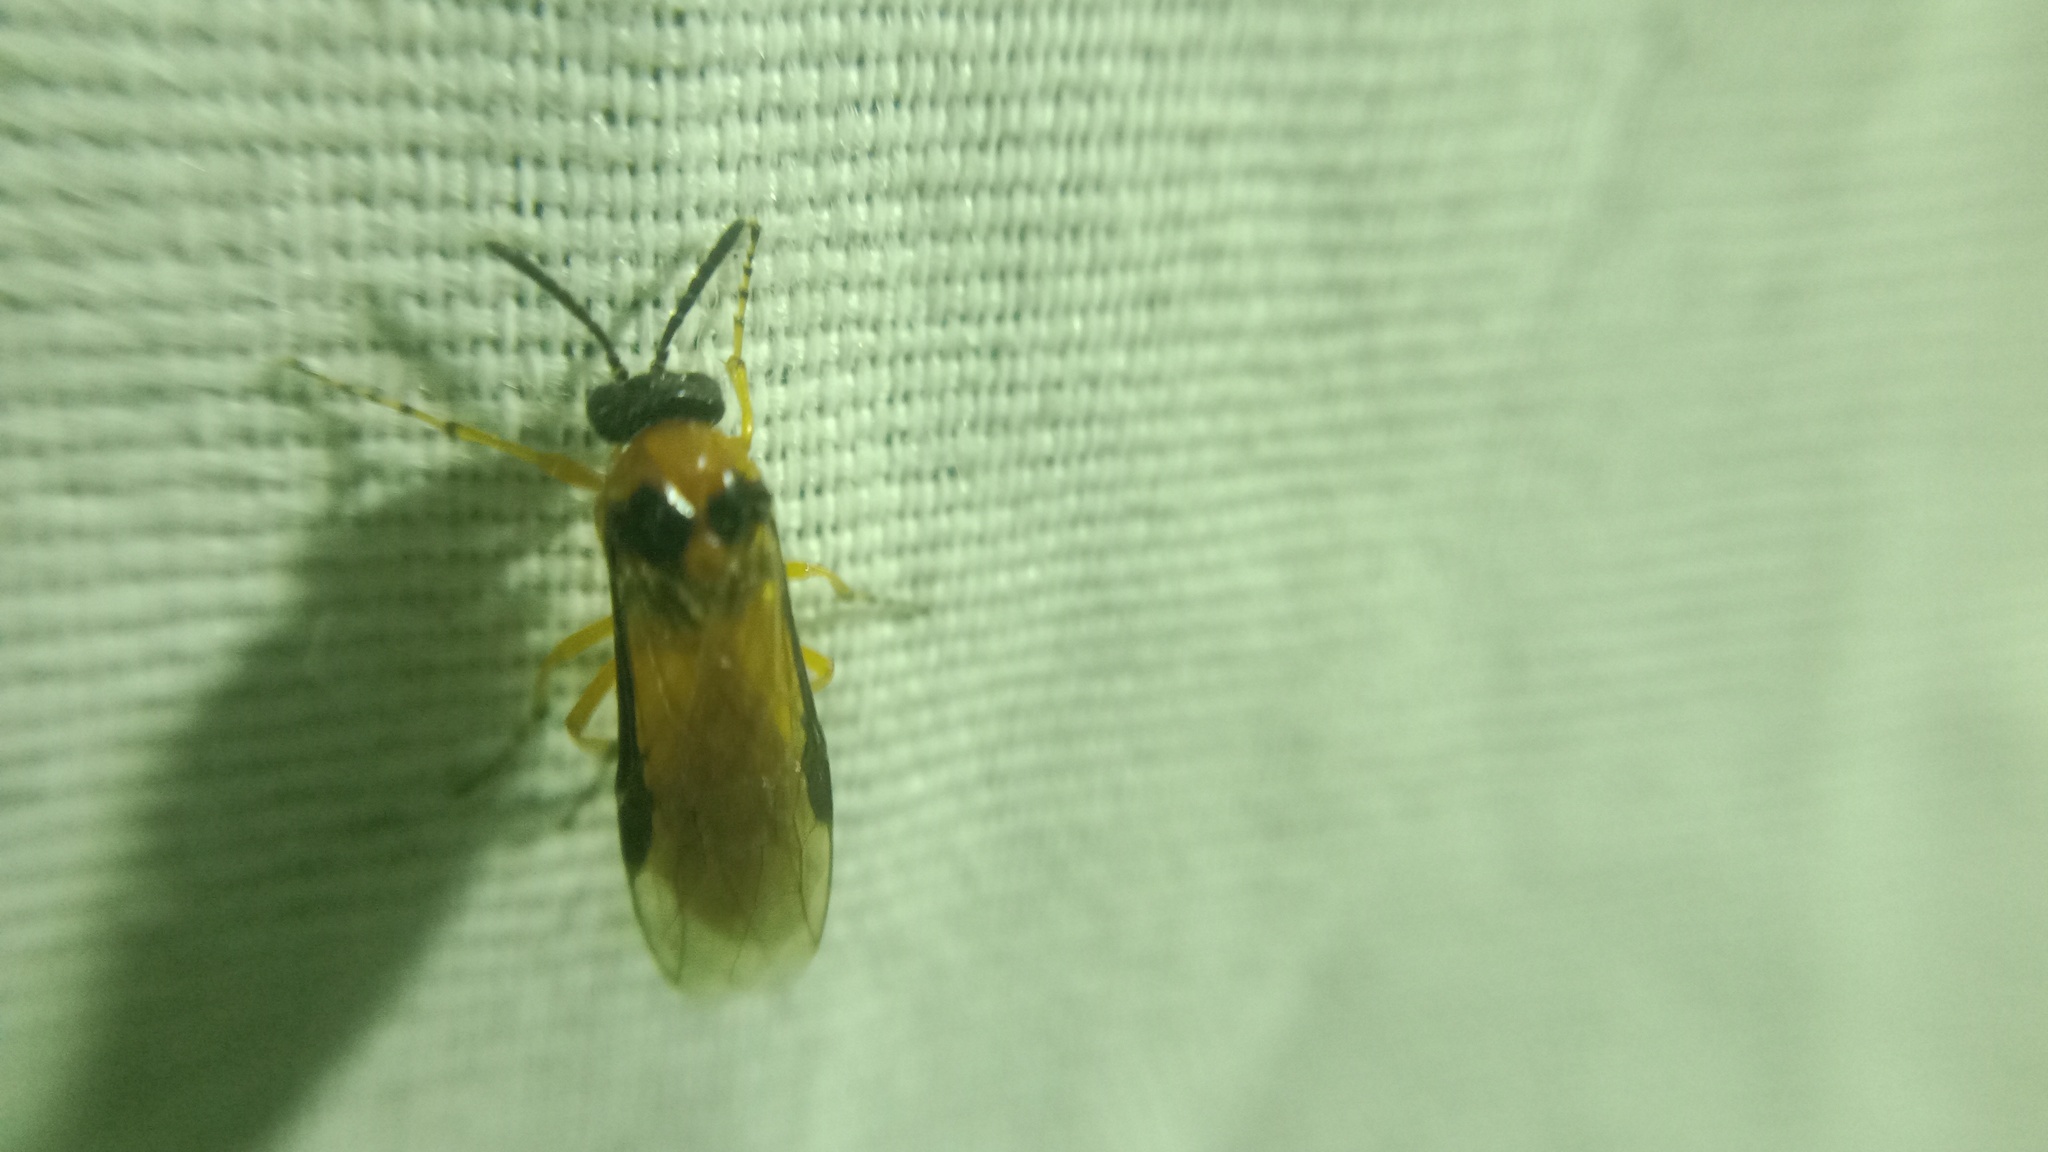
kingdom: Animalia
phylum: Arthropoda
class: Insecta
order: Hymenoptera
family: Tenthredinidae
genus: Athalia
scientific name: Athalia rosae
